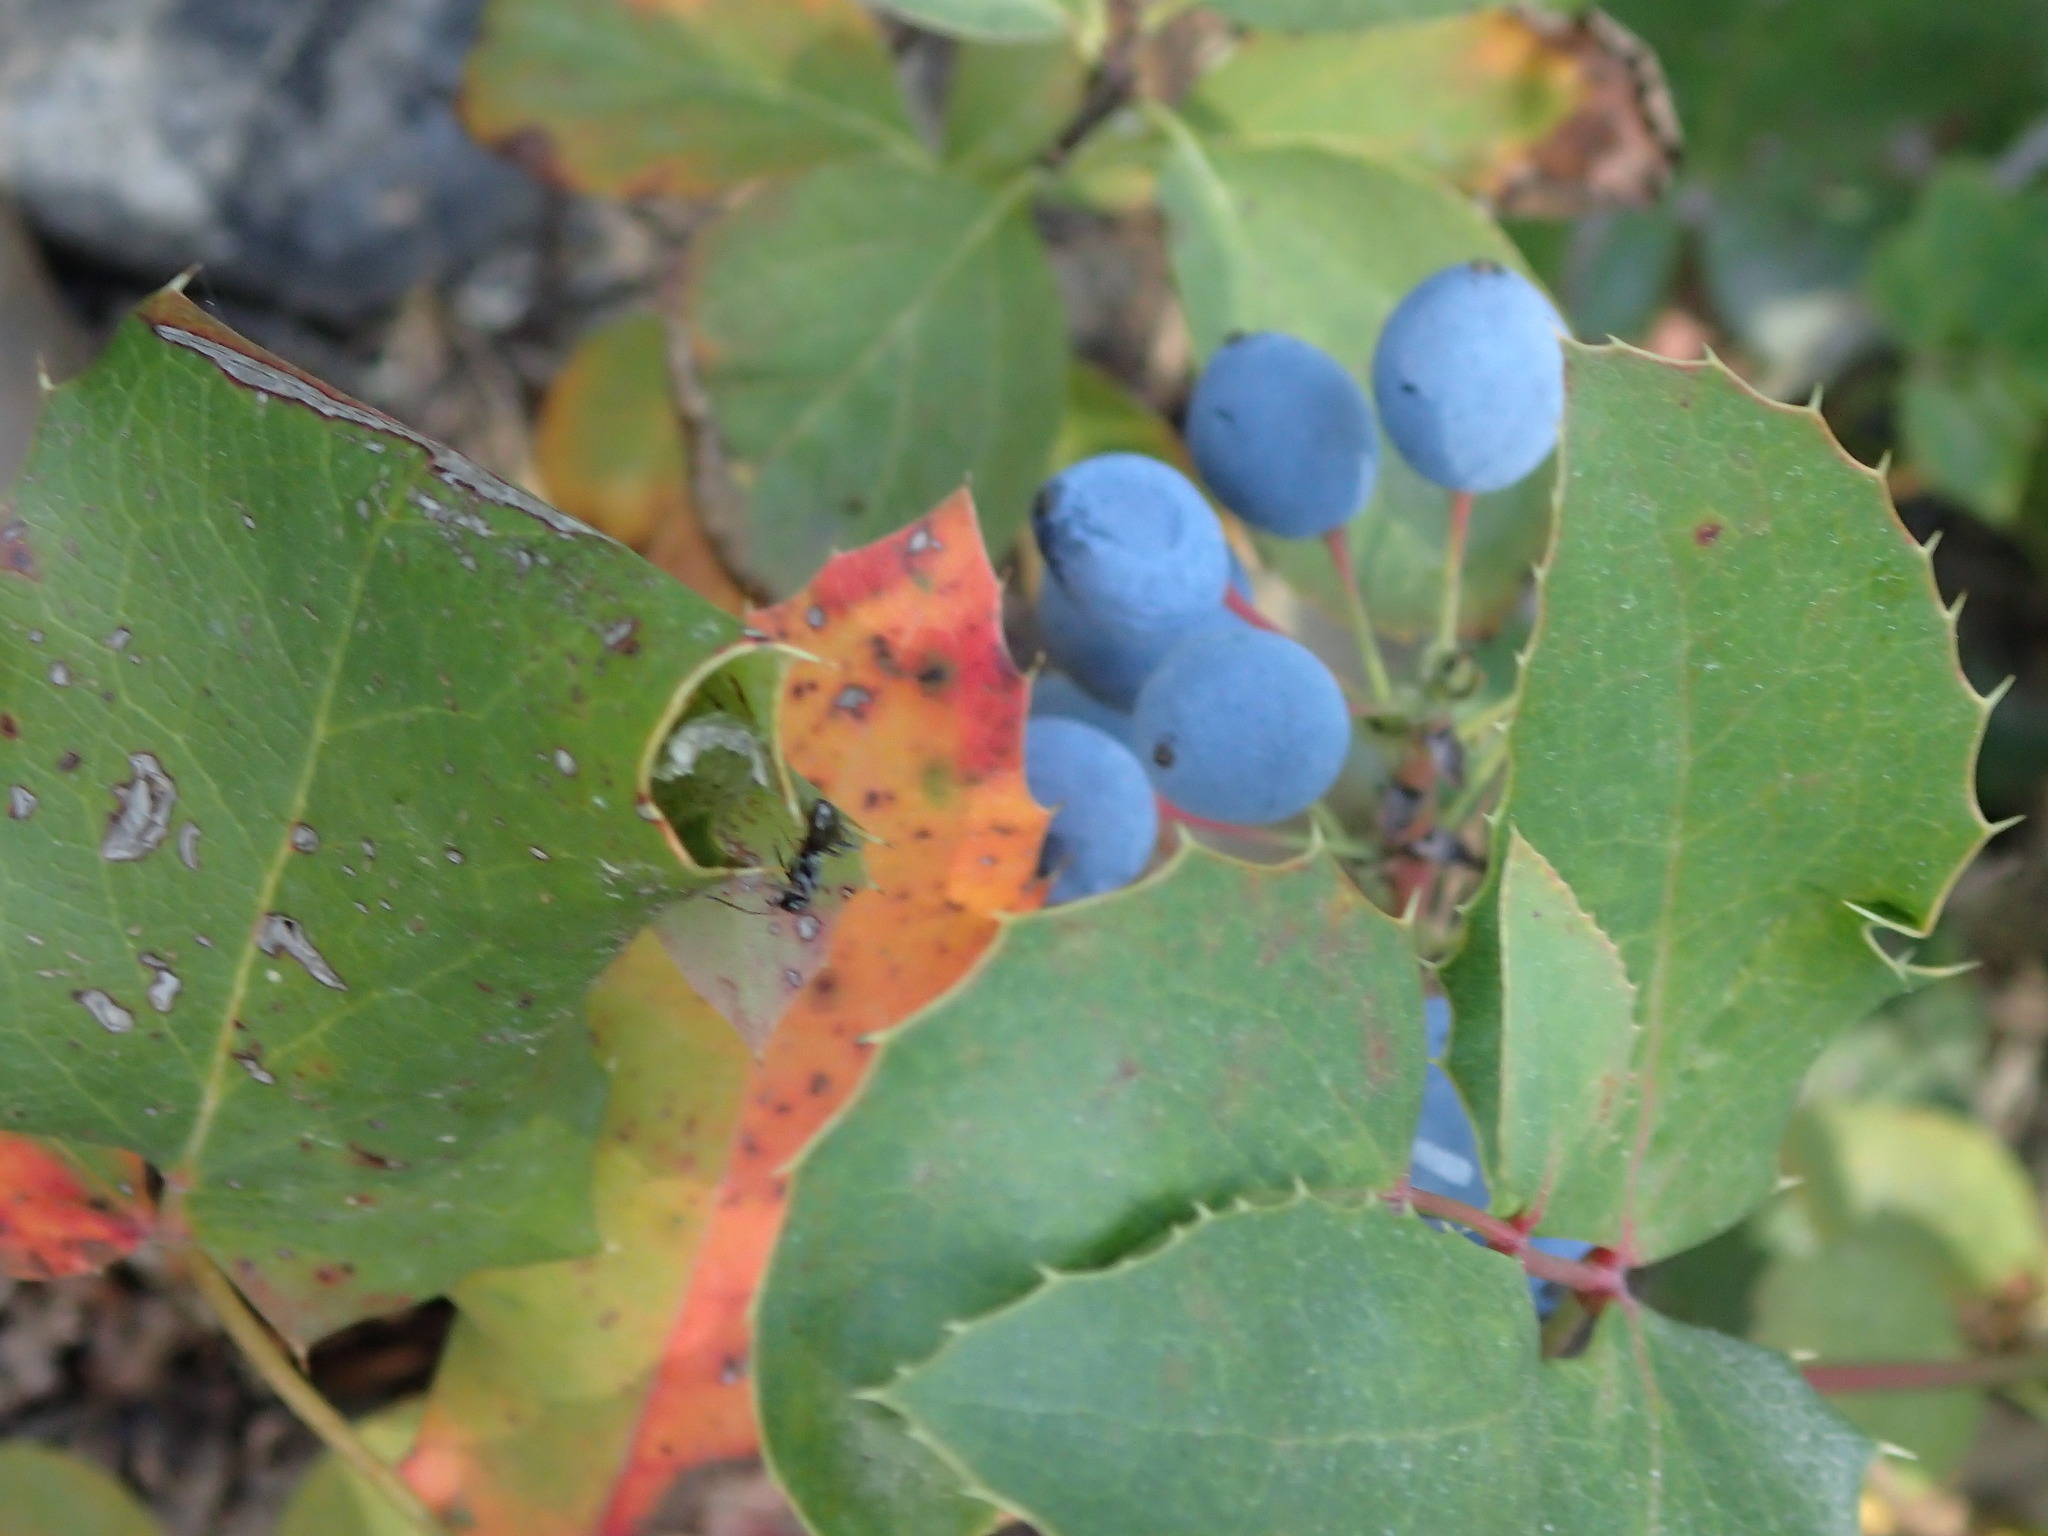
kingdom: Plantae
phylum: Tracheophyta
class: Magnoliopsida
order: Ranunculales
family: Berberidaceae
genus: Mahonia
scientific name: Mahonia repens
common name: Creeping oregon-grape
